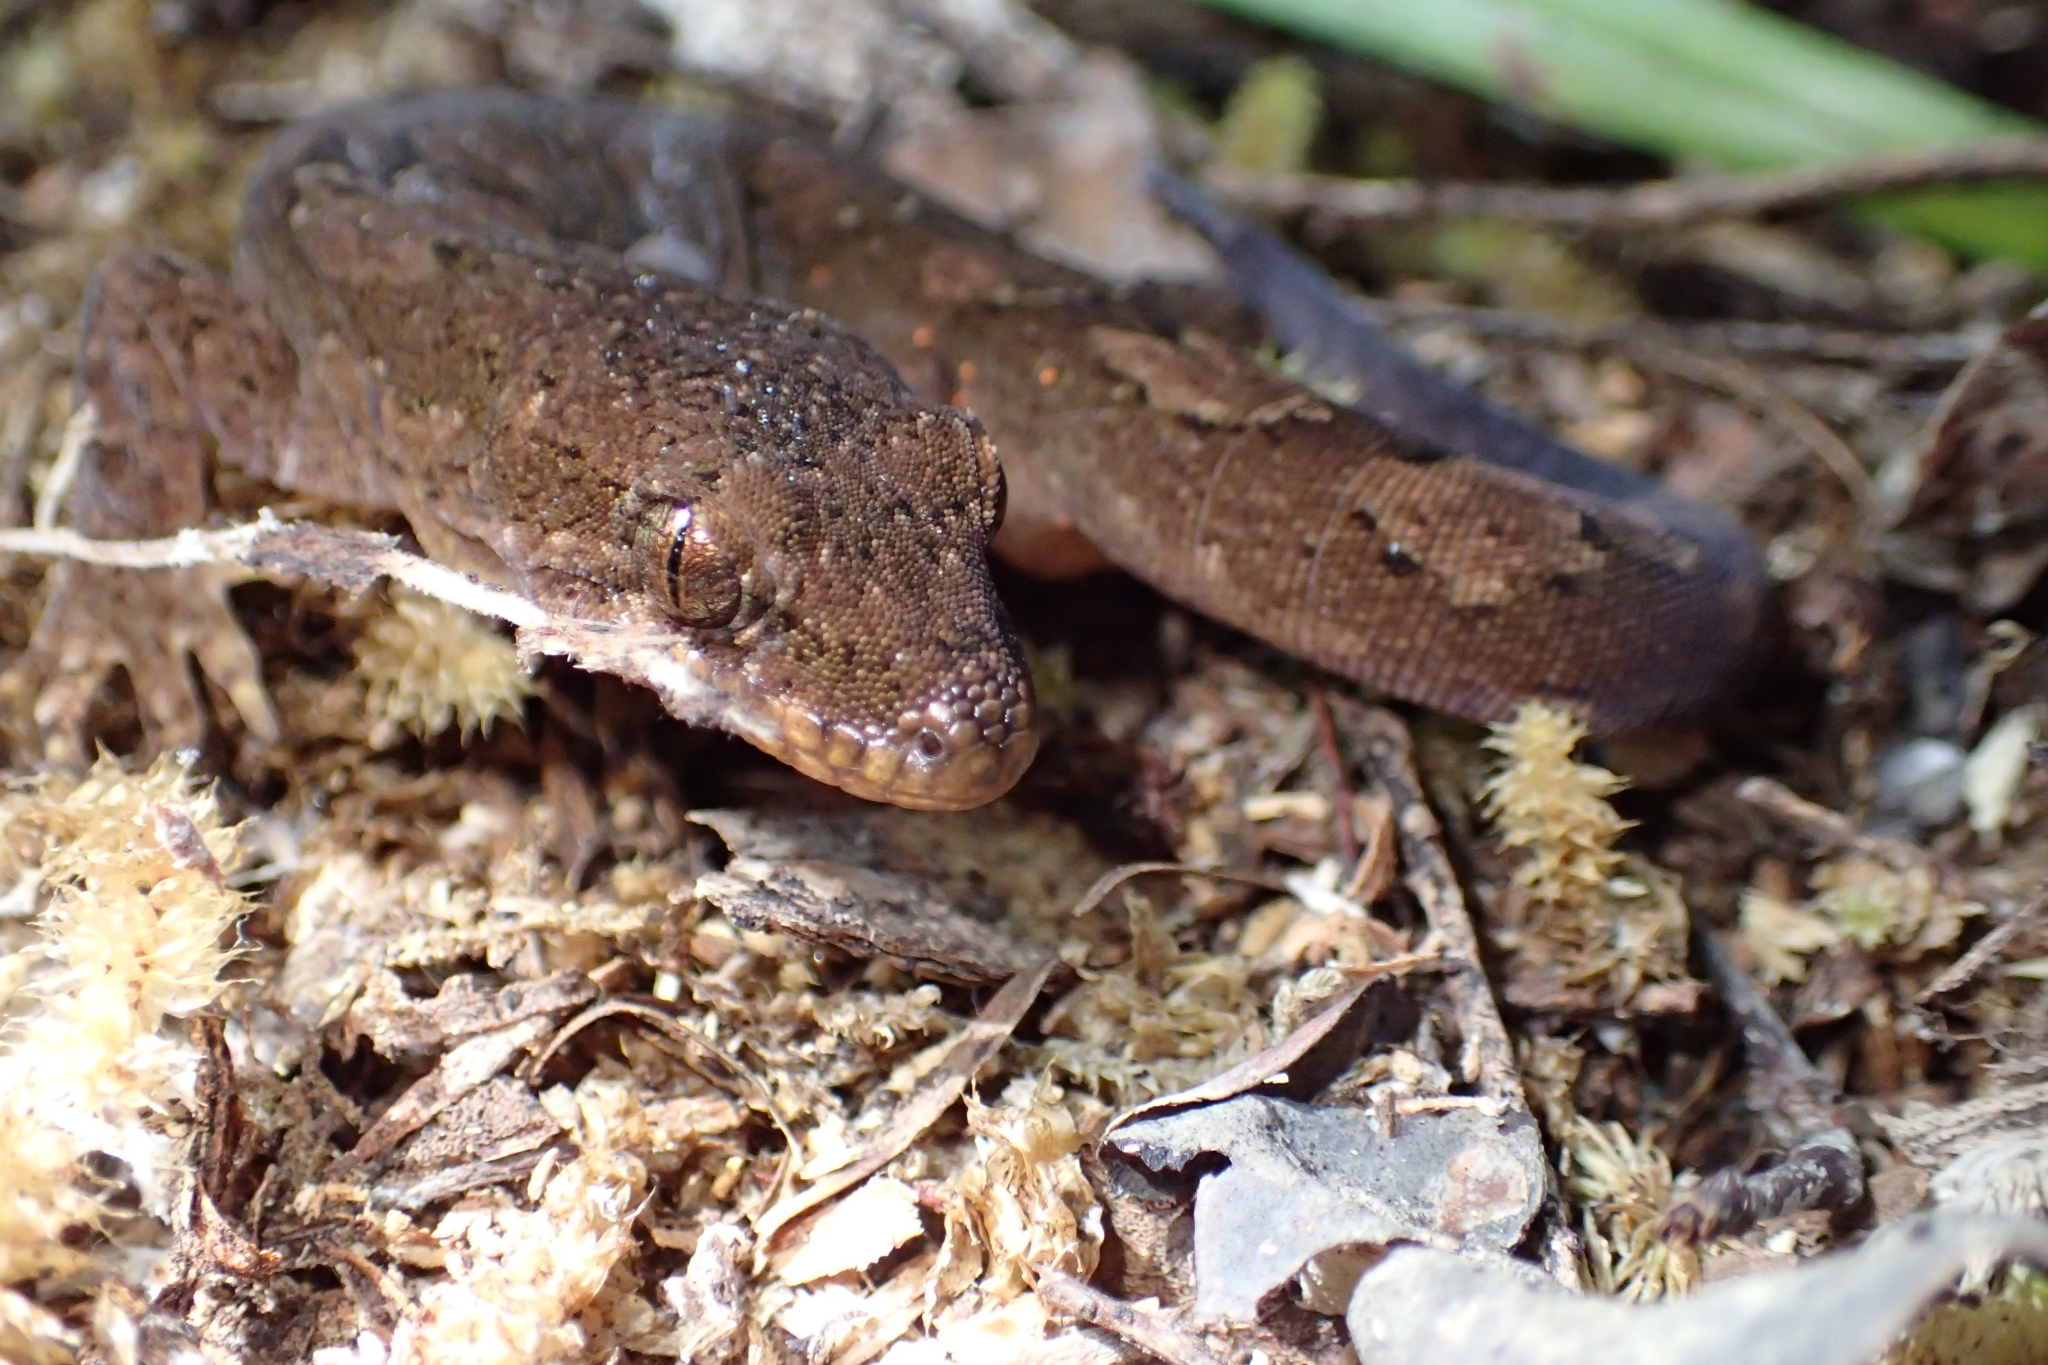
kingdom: Animalia
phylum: Chordata
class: Squamata
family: Diplodactylidae
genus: Dactylocnemis
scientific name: Dactylocnemis pacificus
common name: Pacific gecko
